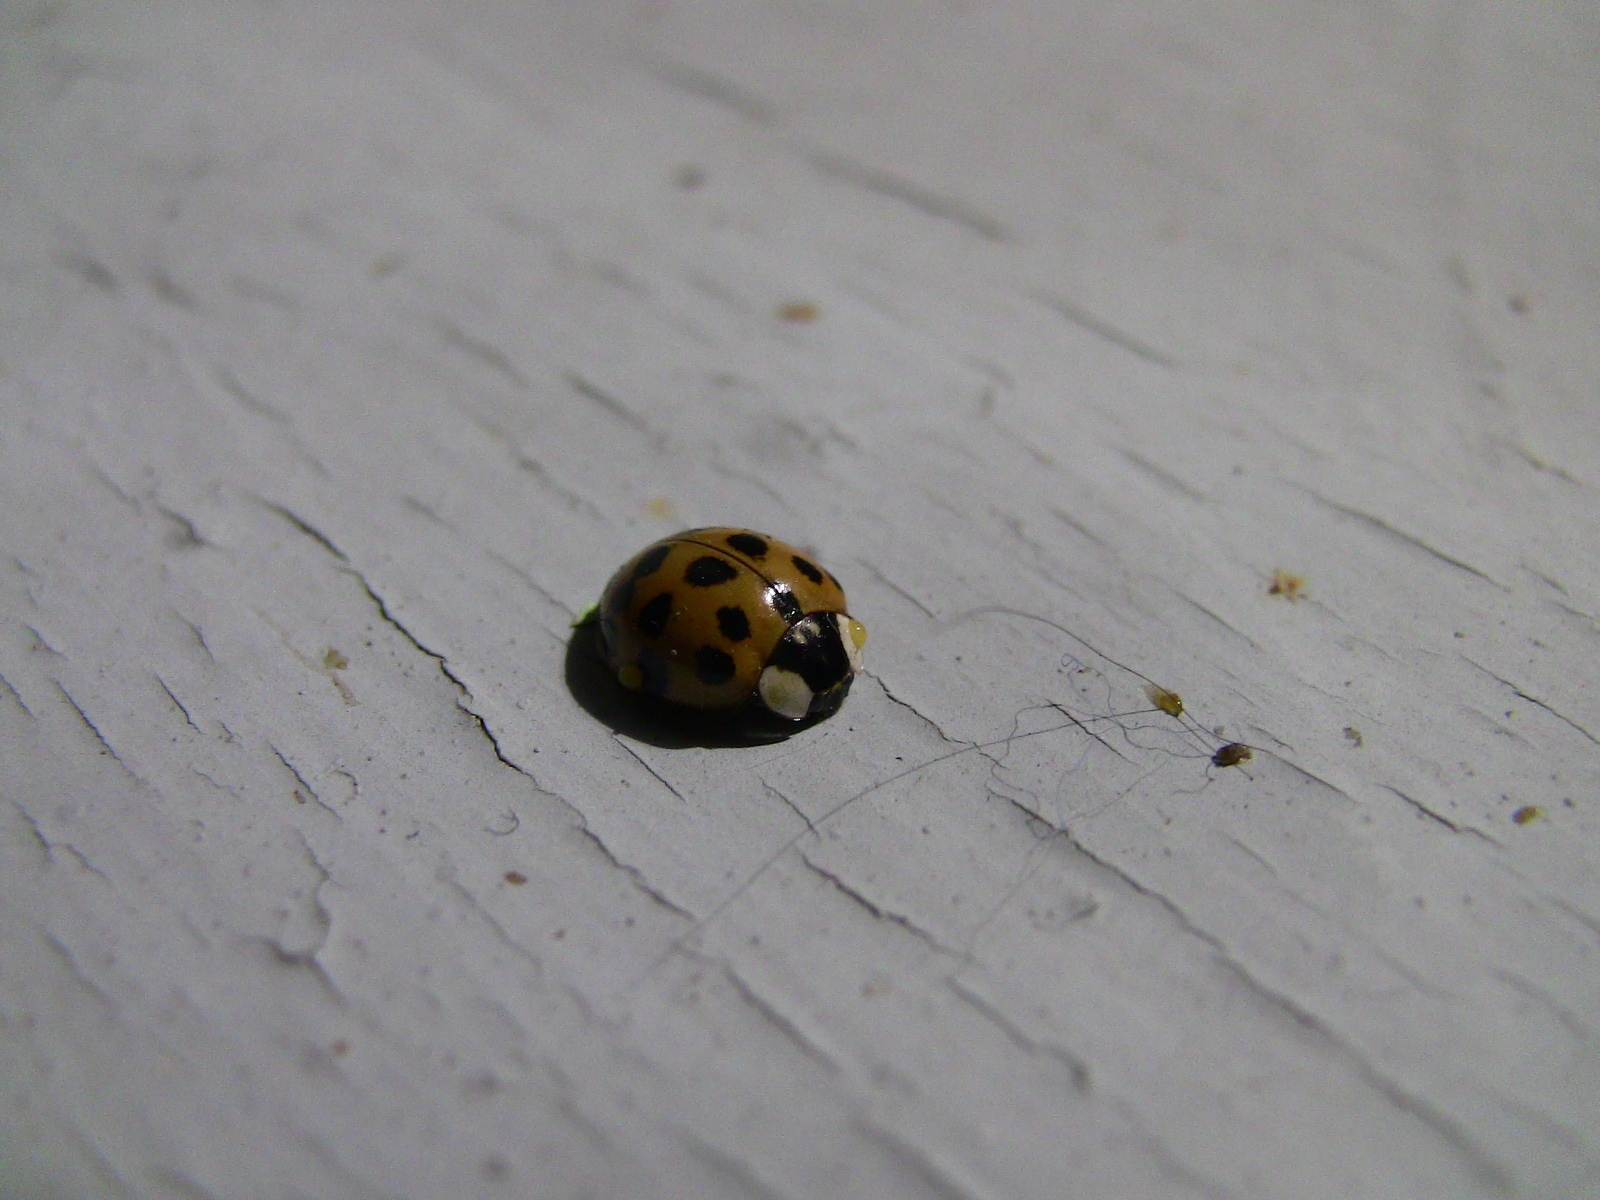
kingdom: Animalia
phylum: Arthropoda
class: Insecta
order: Coleoptera
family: Coccinellidae
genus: Harmonia
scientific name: Harmonia axyridis
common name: Harlequin ladybird
